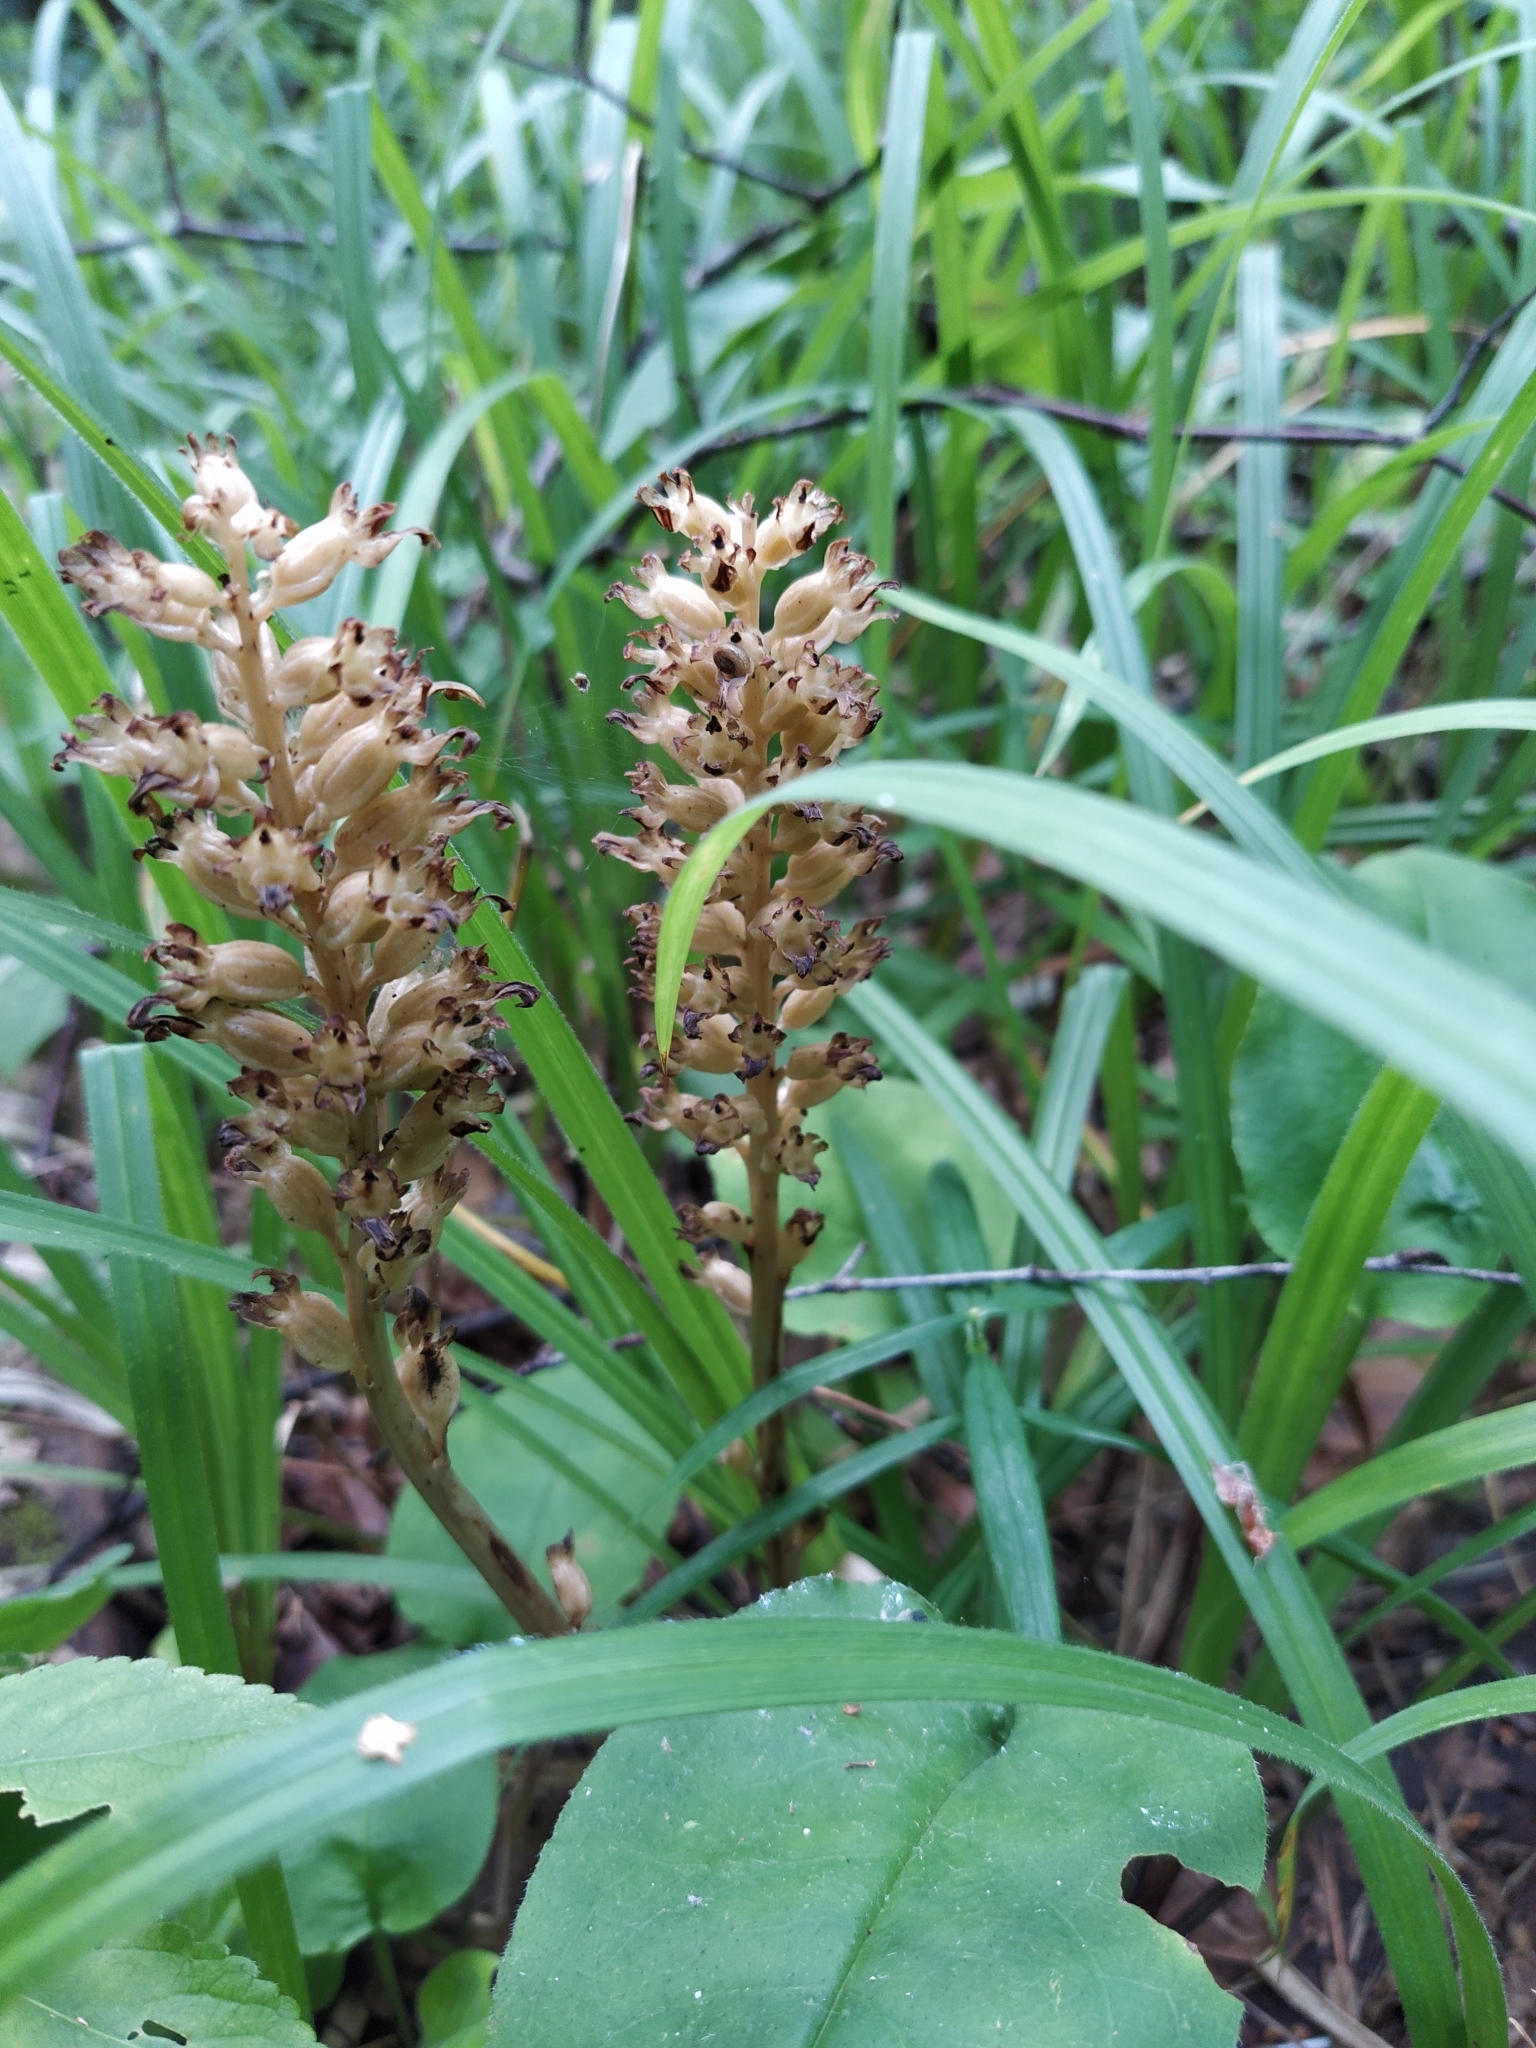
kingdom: Plantae
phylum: Tracheophyta
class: Liliopsida
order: Asparagales
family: Orchidaceae
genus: Neottia
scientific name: Neottia nidus-avis
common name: Bird's-nest orchid
